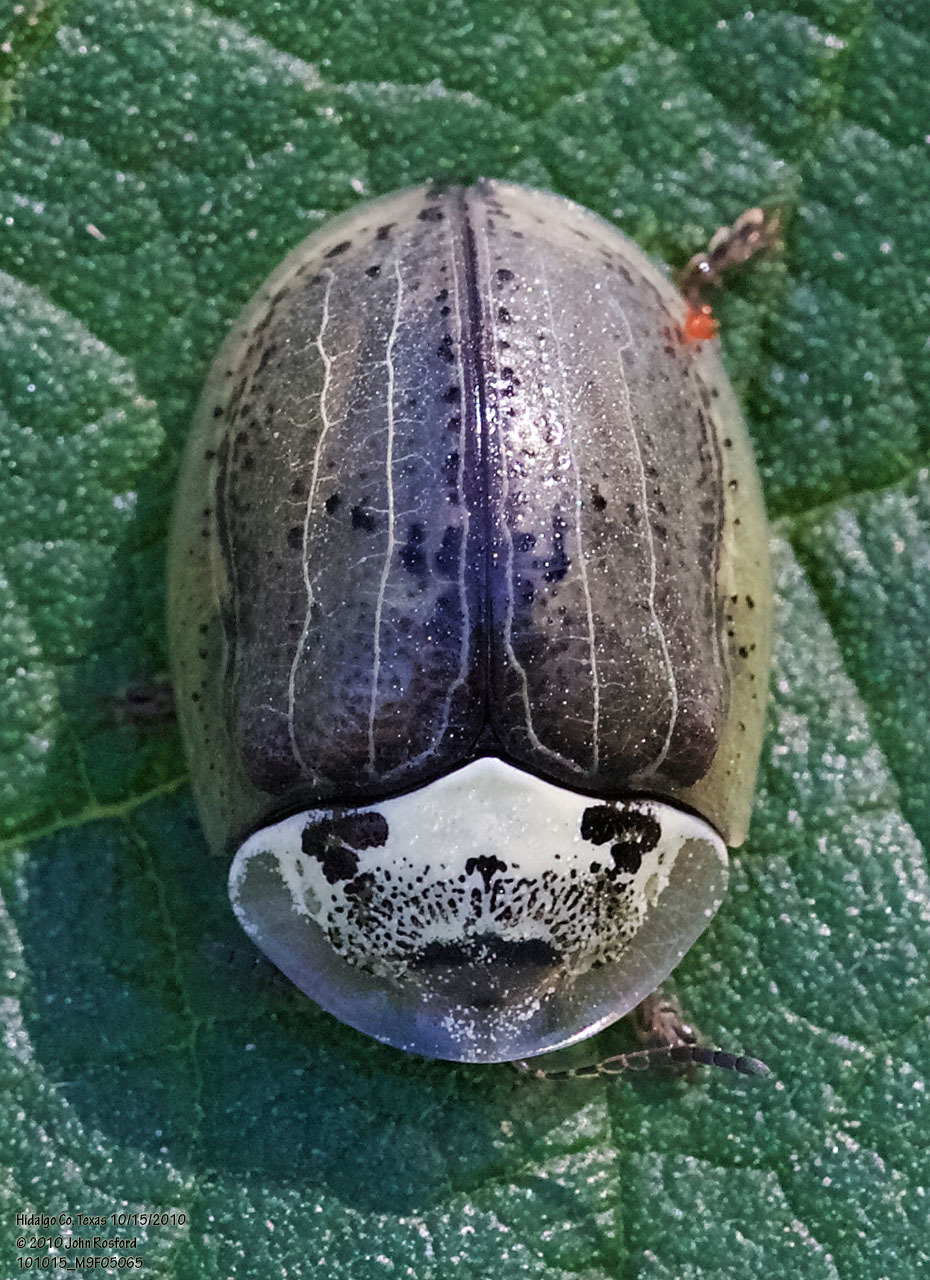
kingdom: Animalia
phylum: Arthropoda
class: Insecta
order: Coleoptera
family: Chrysomelidae
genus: Physonota
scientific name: Physonota alutacea
